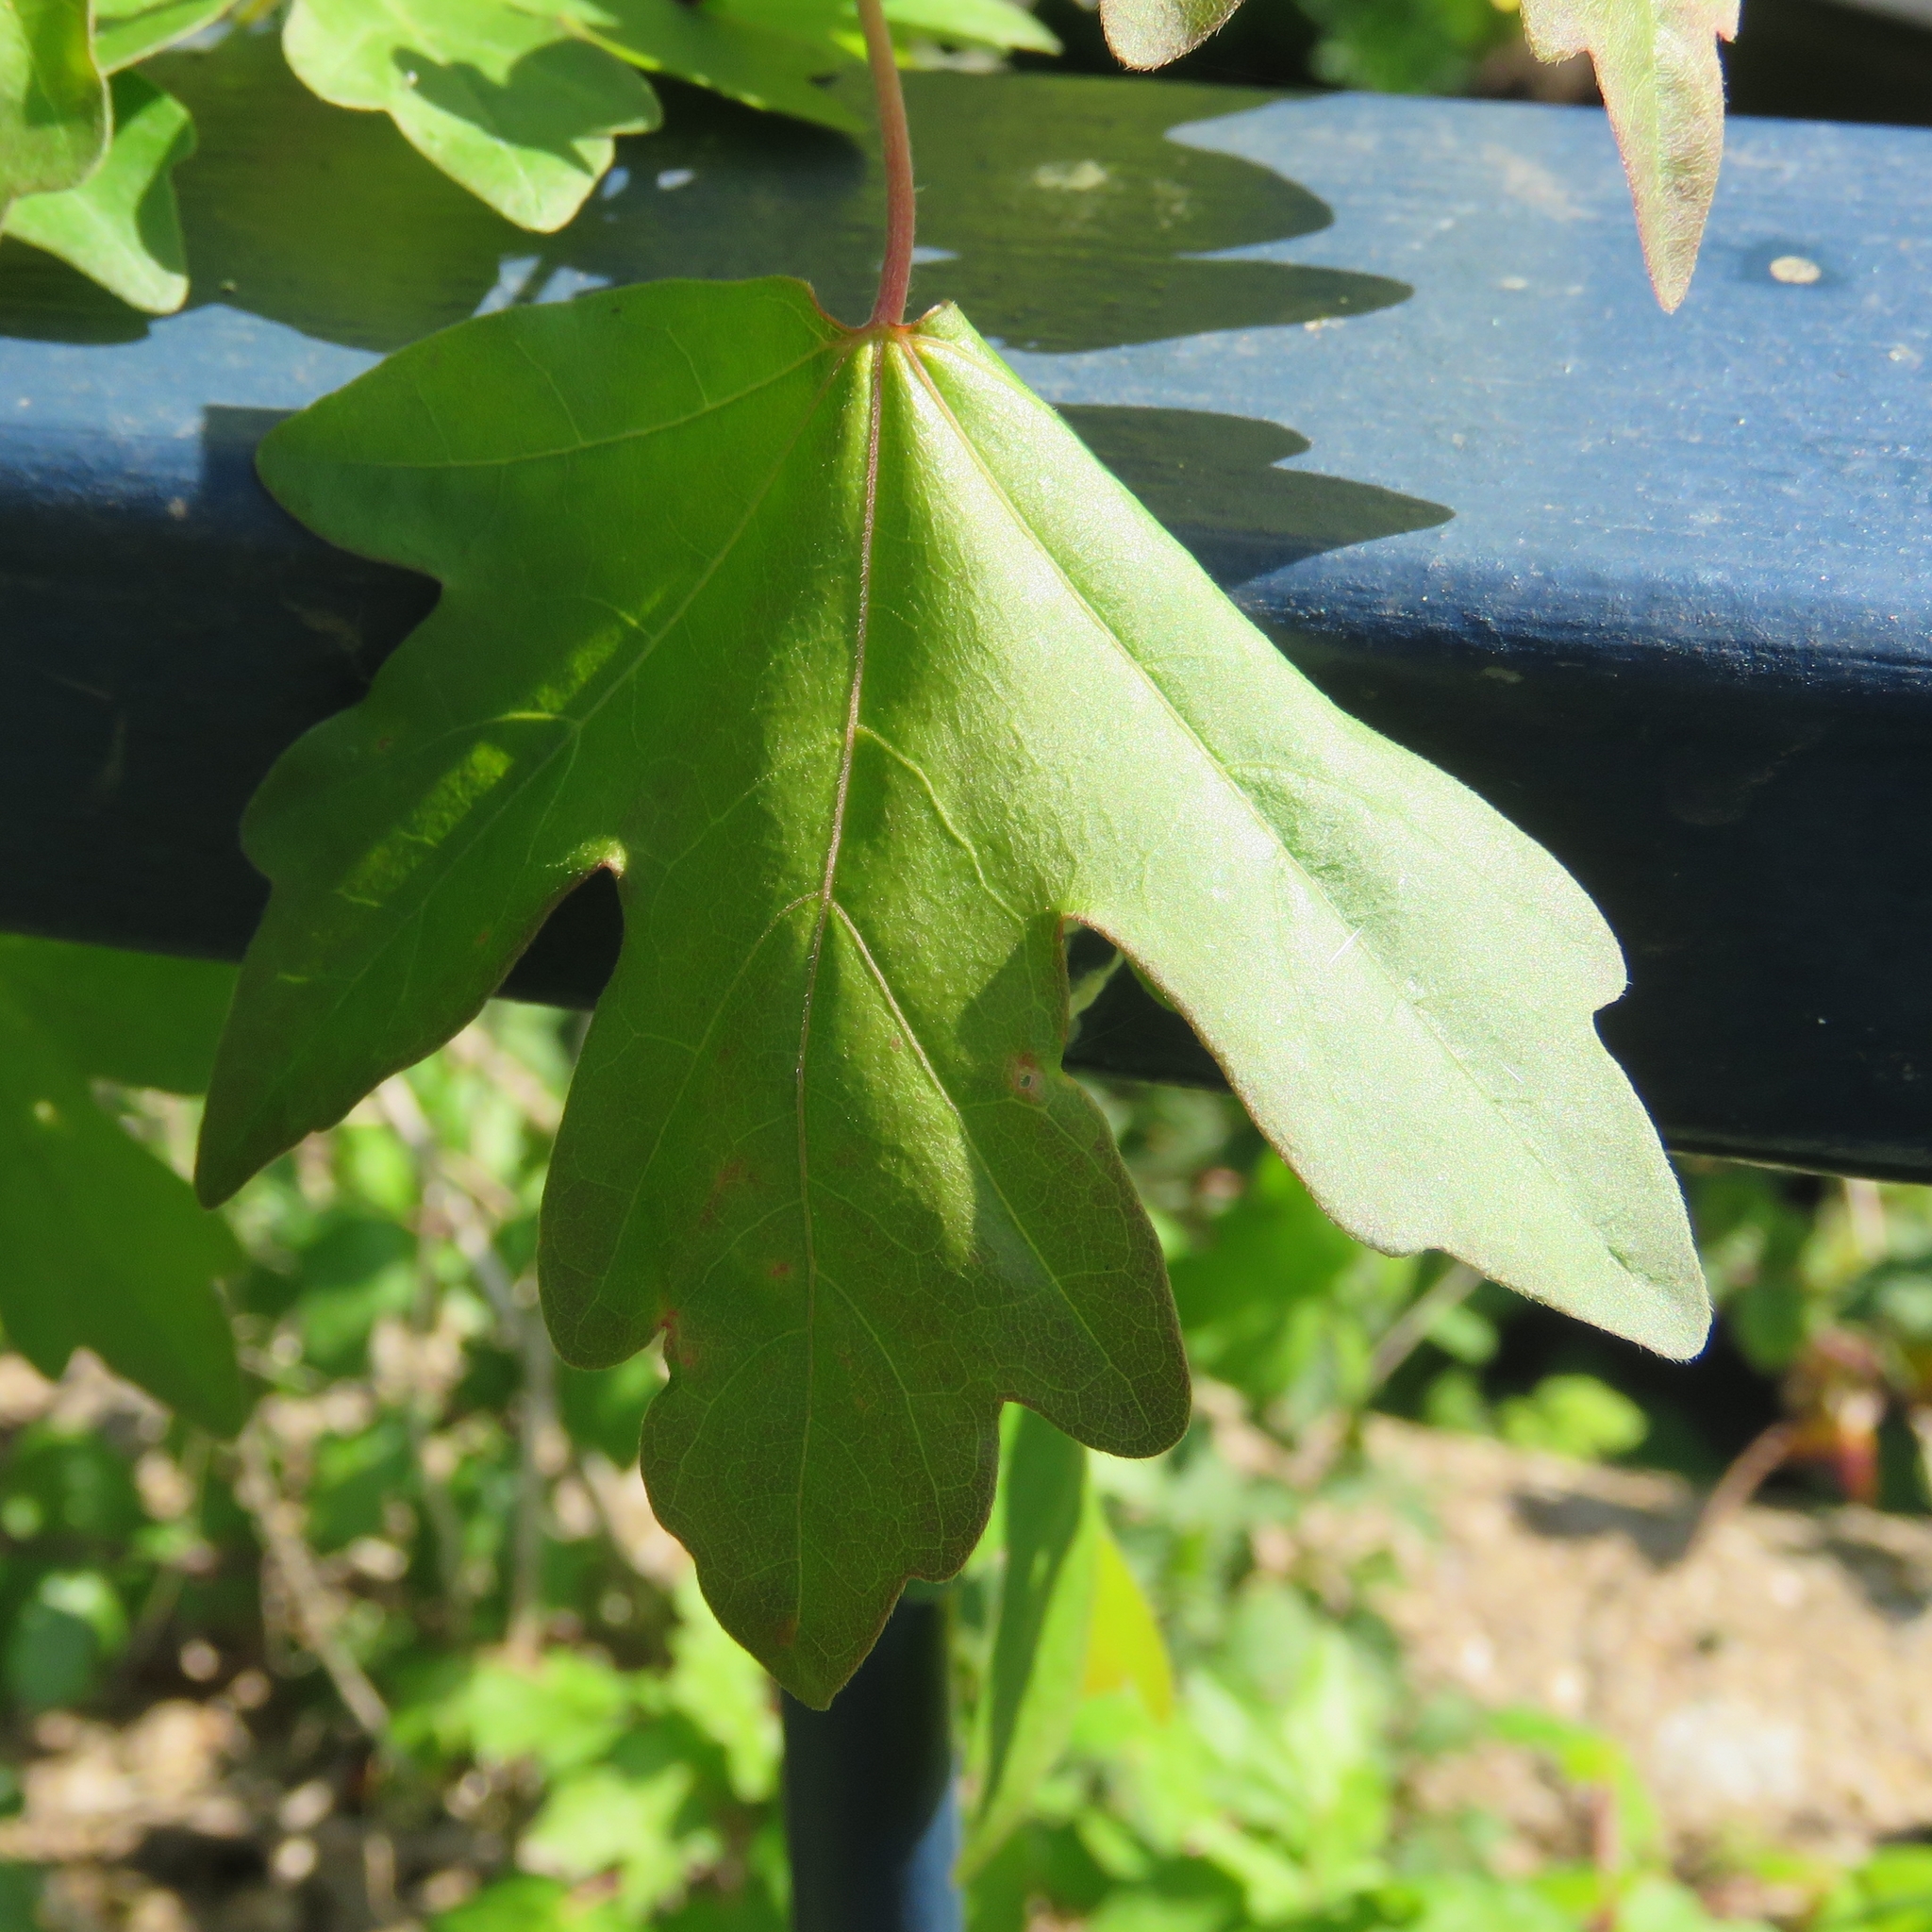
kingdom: Plantae
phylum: Tracheophyta
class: Magnoliopsida
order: Sapindales
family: Sapindaceae
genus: Acer
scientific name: Acer campestre
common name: Field maple
